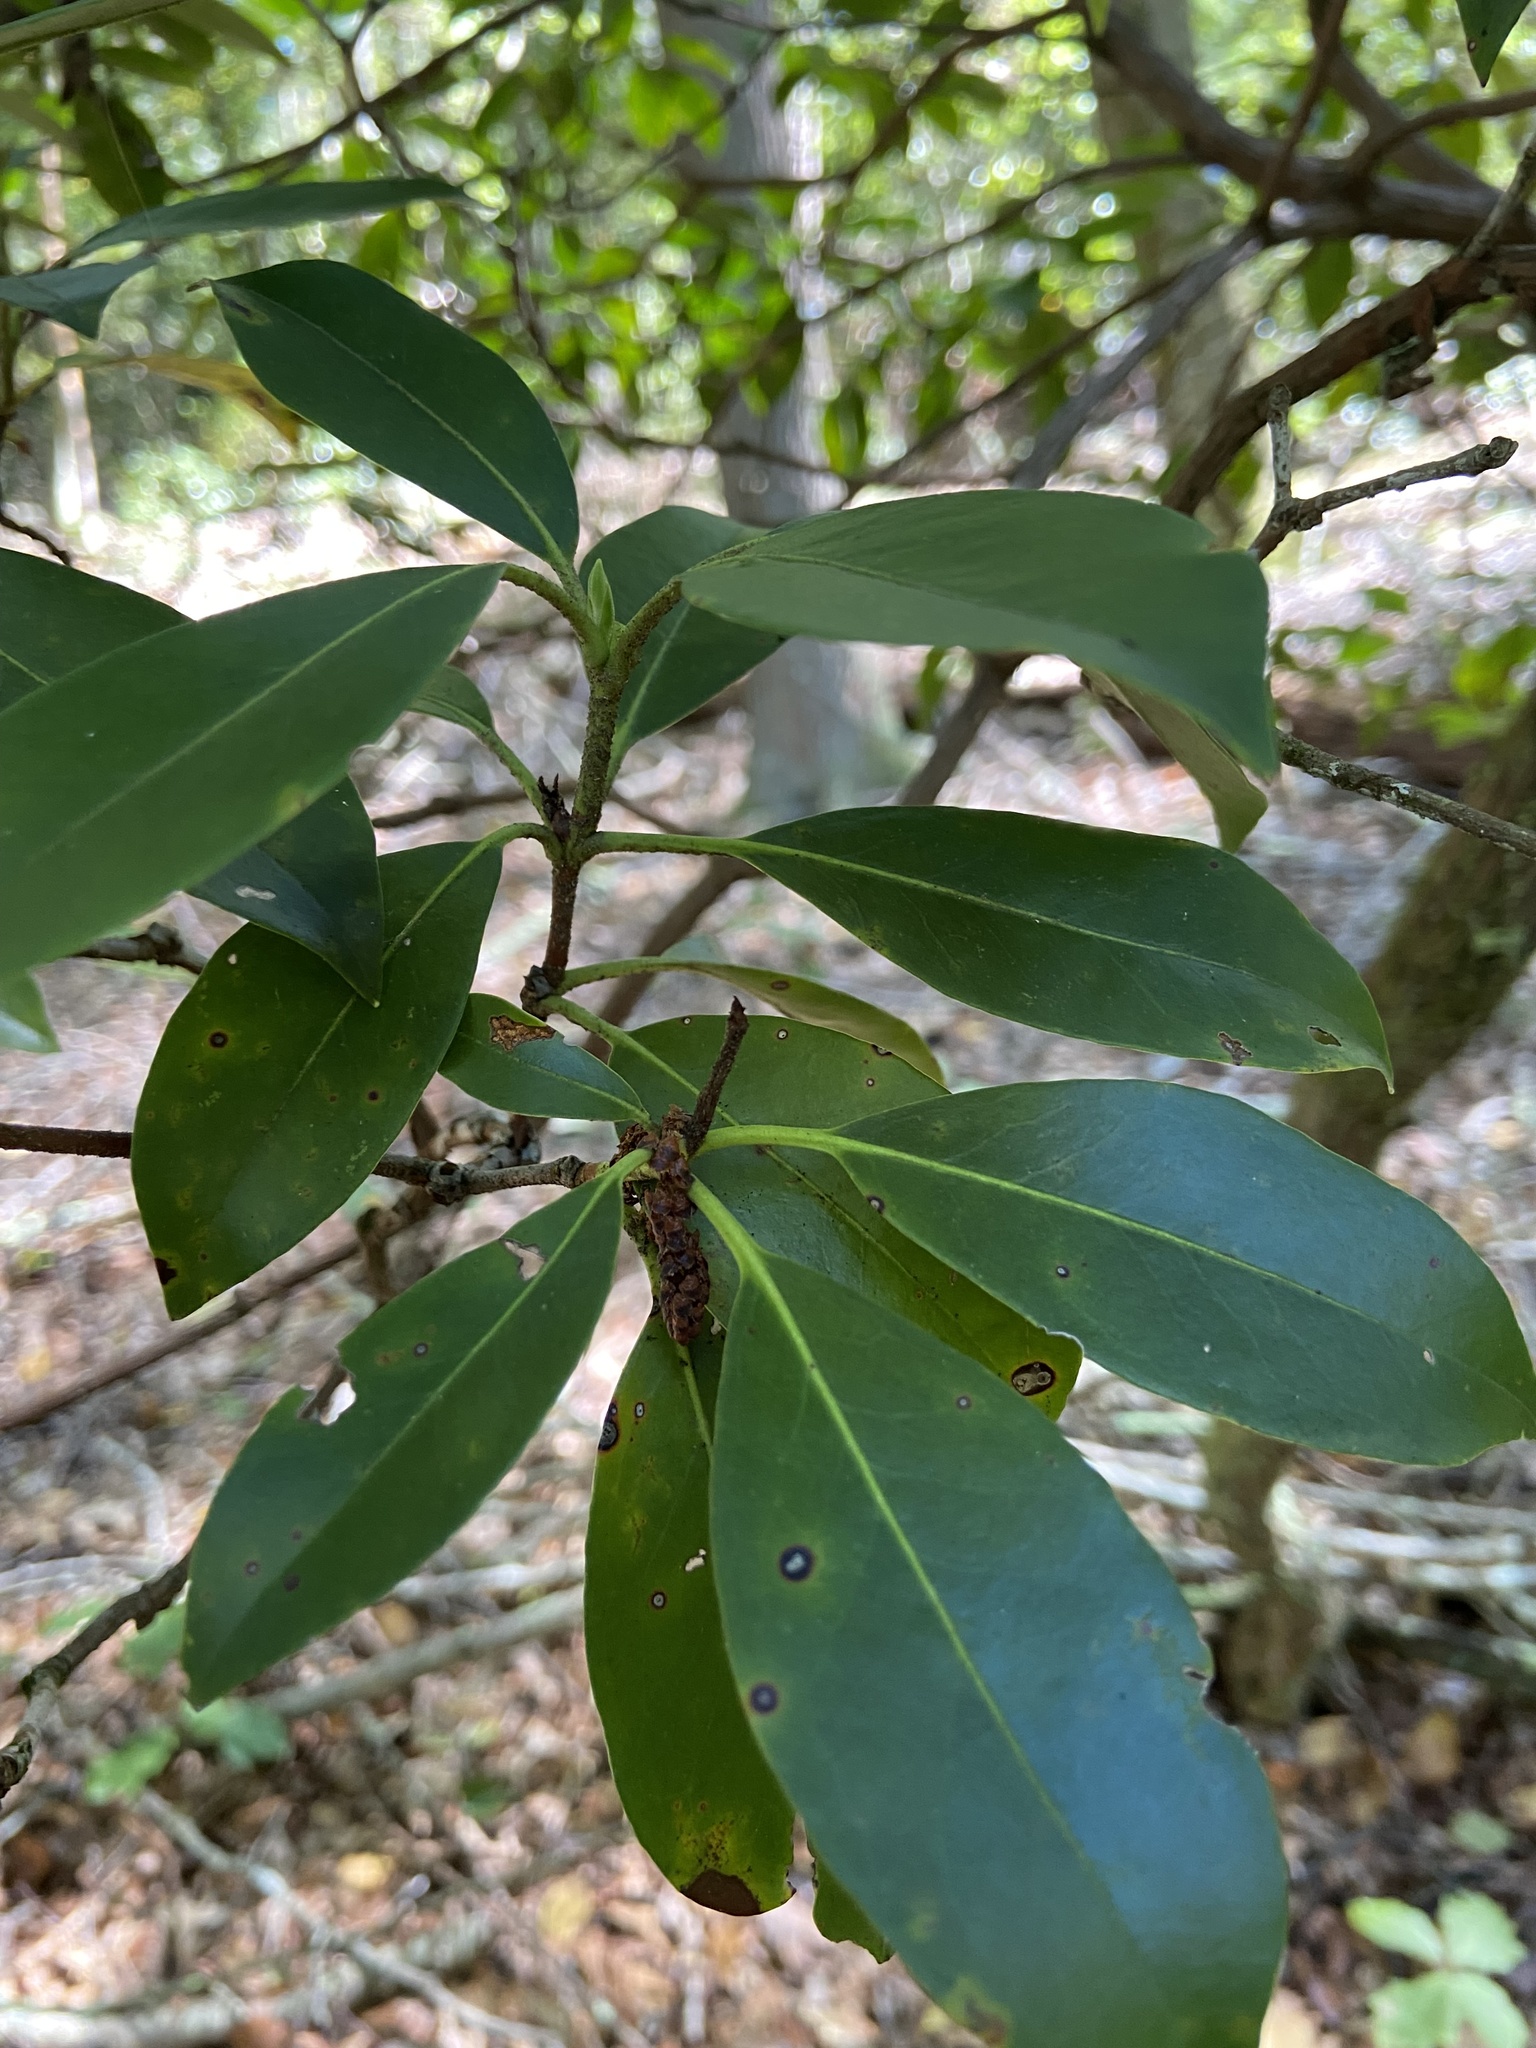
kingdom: Plantae
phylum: Tracheophyta
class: Magnoliopsida
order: Ericales
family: Ericaceae
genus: Kalmia
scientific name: Kalmia latifolia
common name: Mountain-laurel
